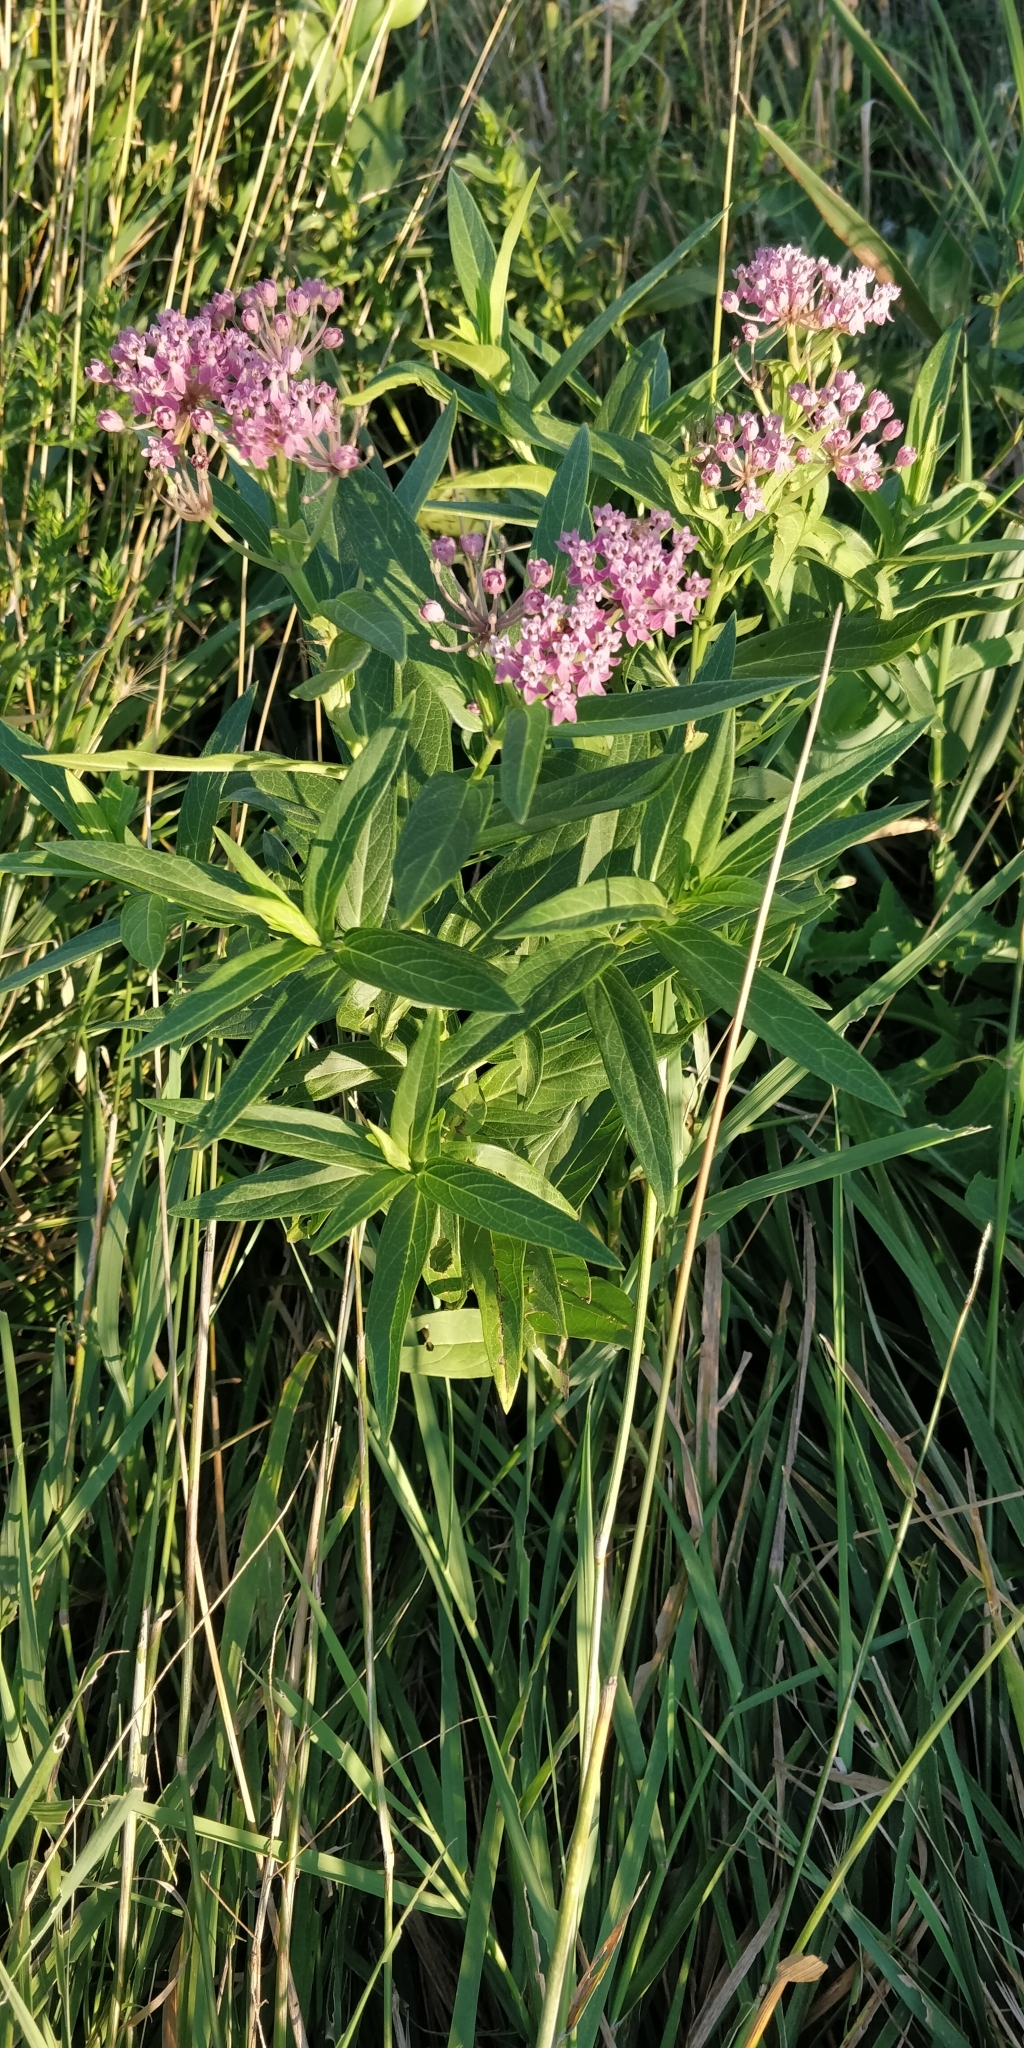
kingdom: Plantae
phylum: Tracheophyta
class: Magnoliopsida
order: Gentianales
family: Apocynaceae
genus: Asclepias
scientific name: Asclepias incarnata
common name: Swamp milkweed
